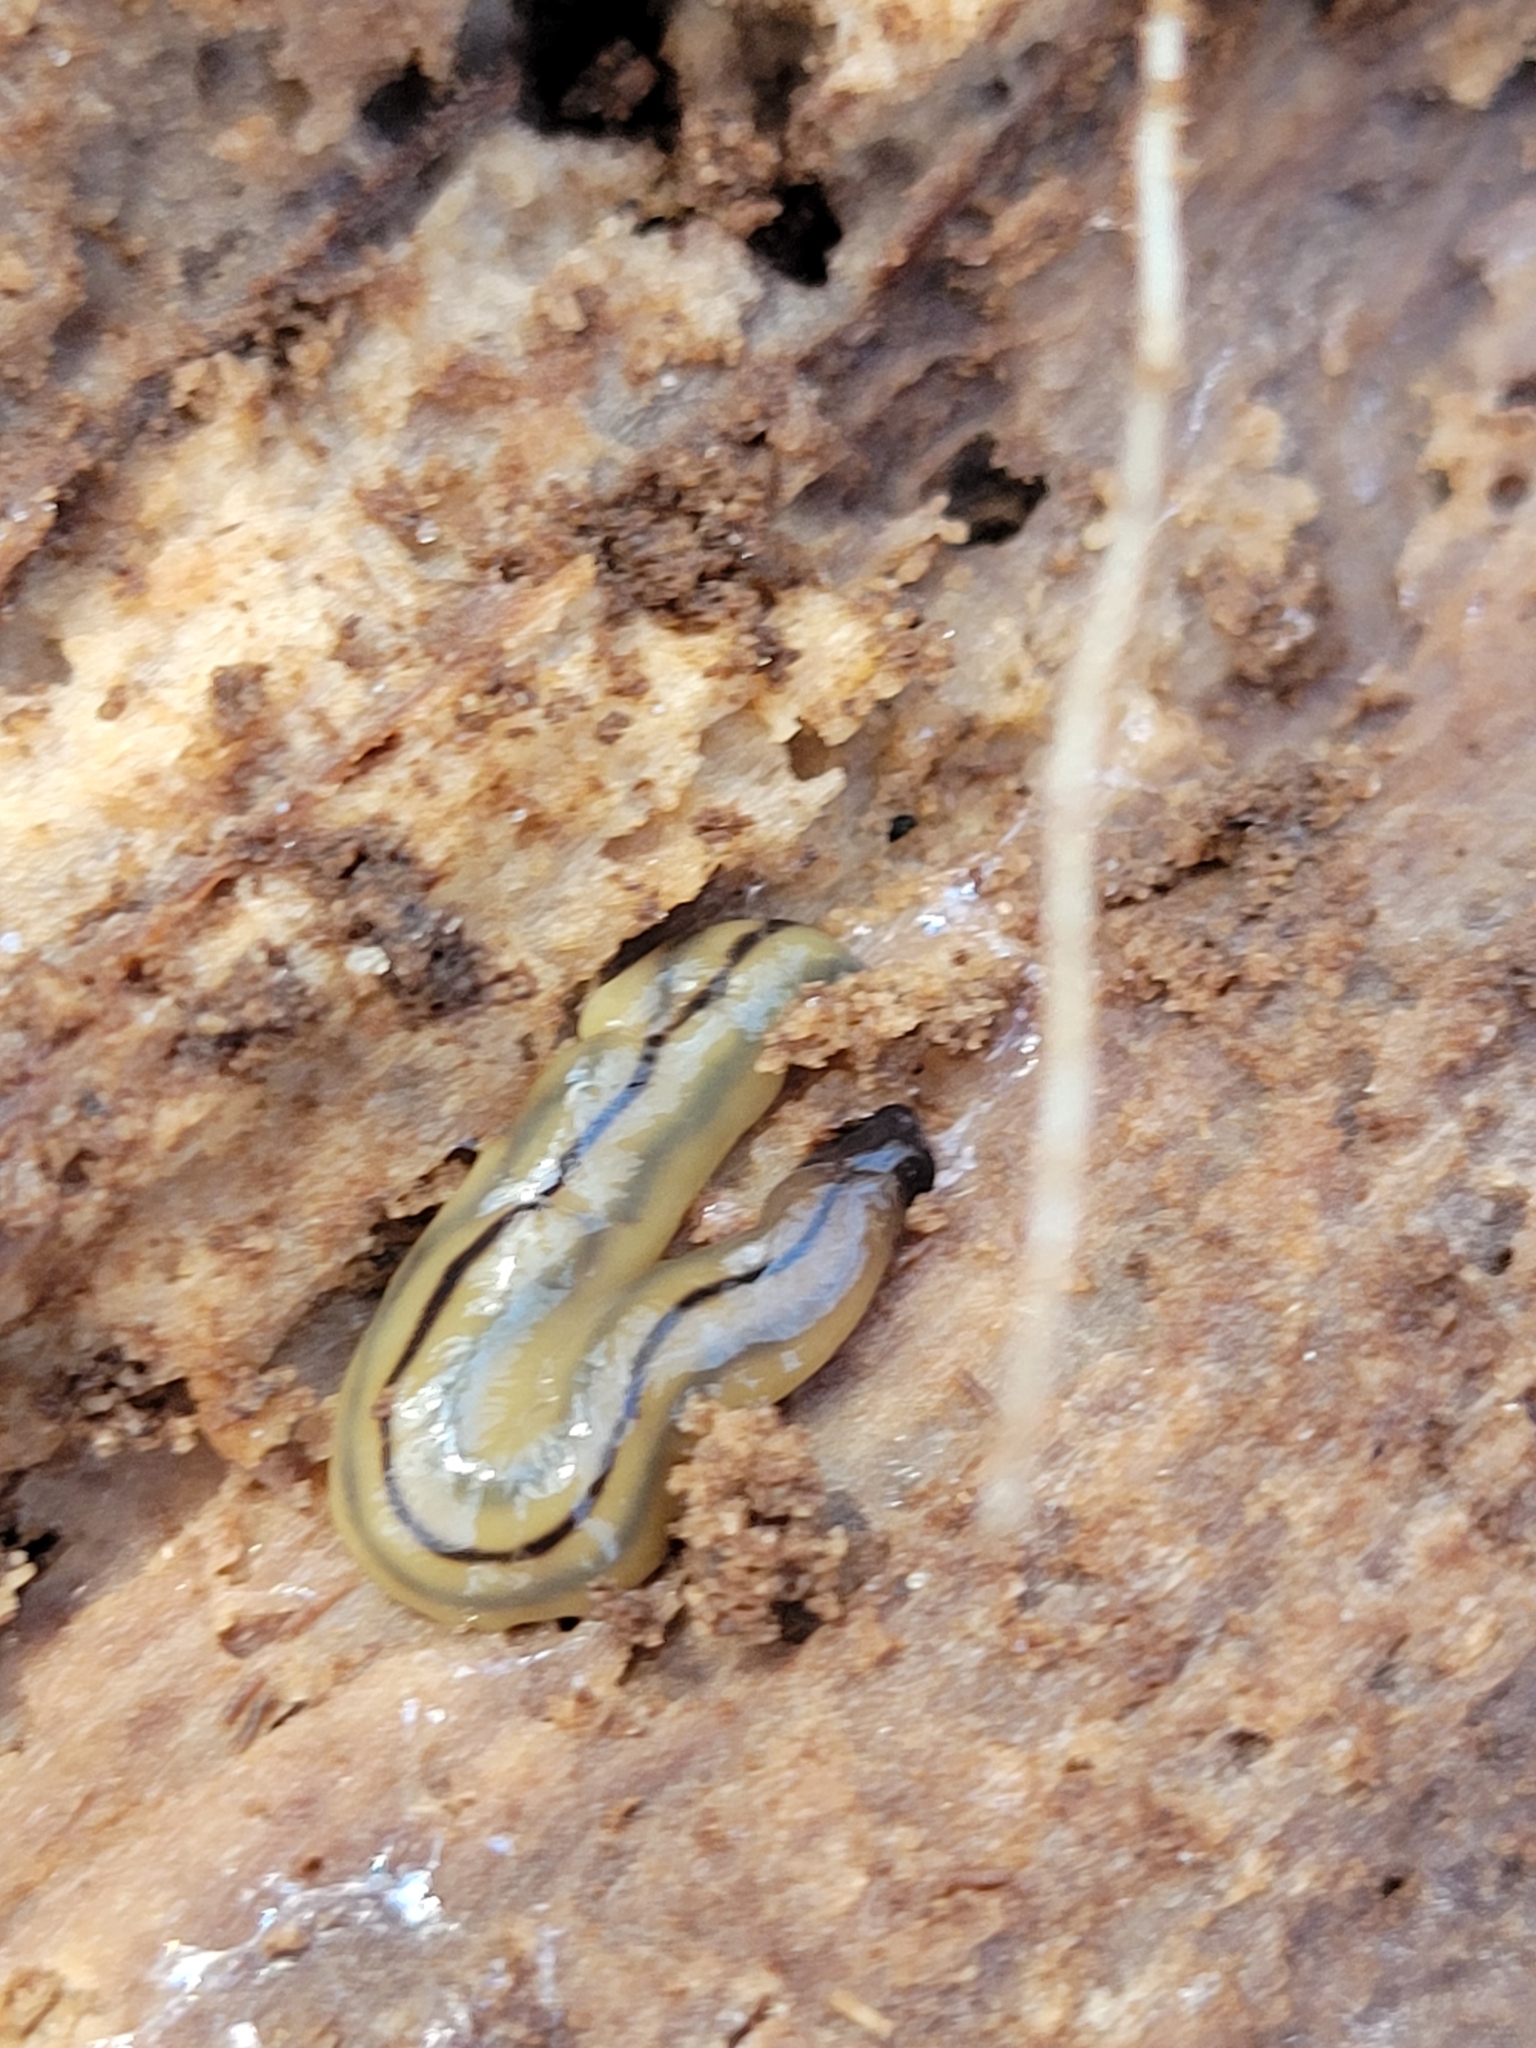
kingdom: Animalia
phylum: Platyhelminthes
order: Tricladida
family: Geoplanidae
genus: Bipalium
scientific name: Bipalium pennsylvanicum
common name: Three-lined land planarian
